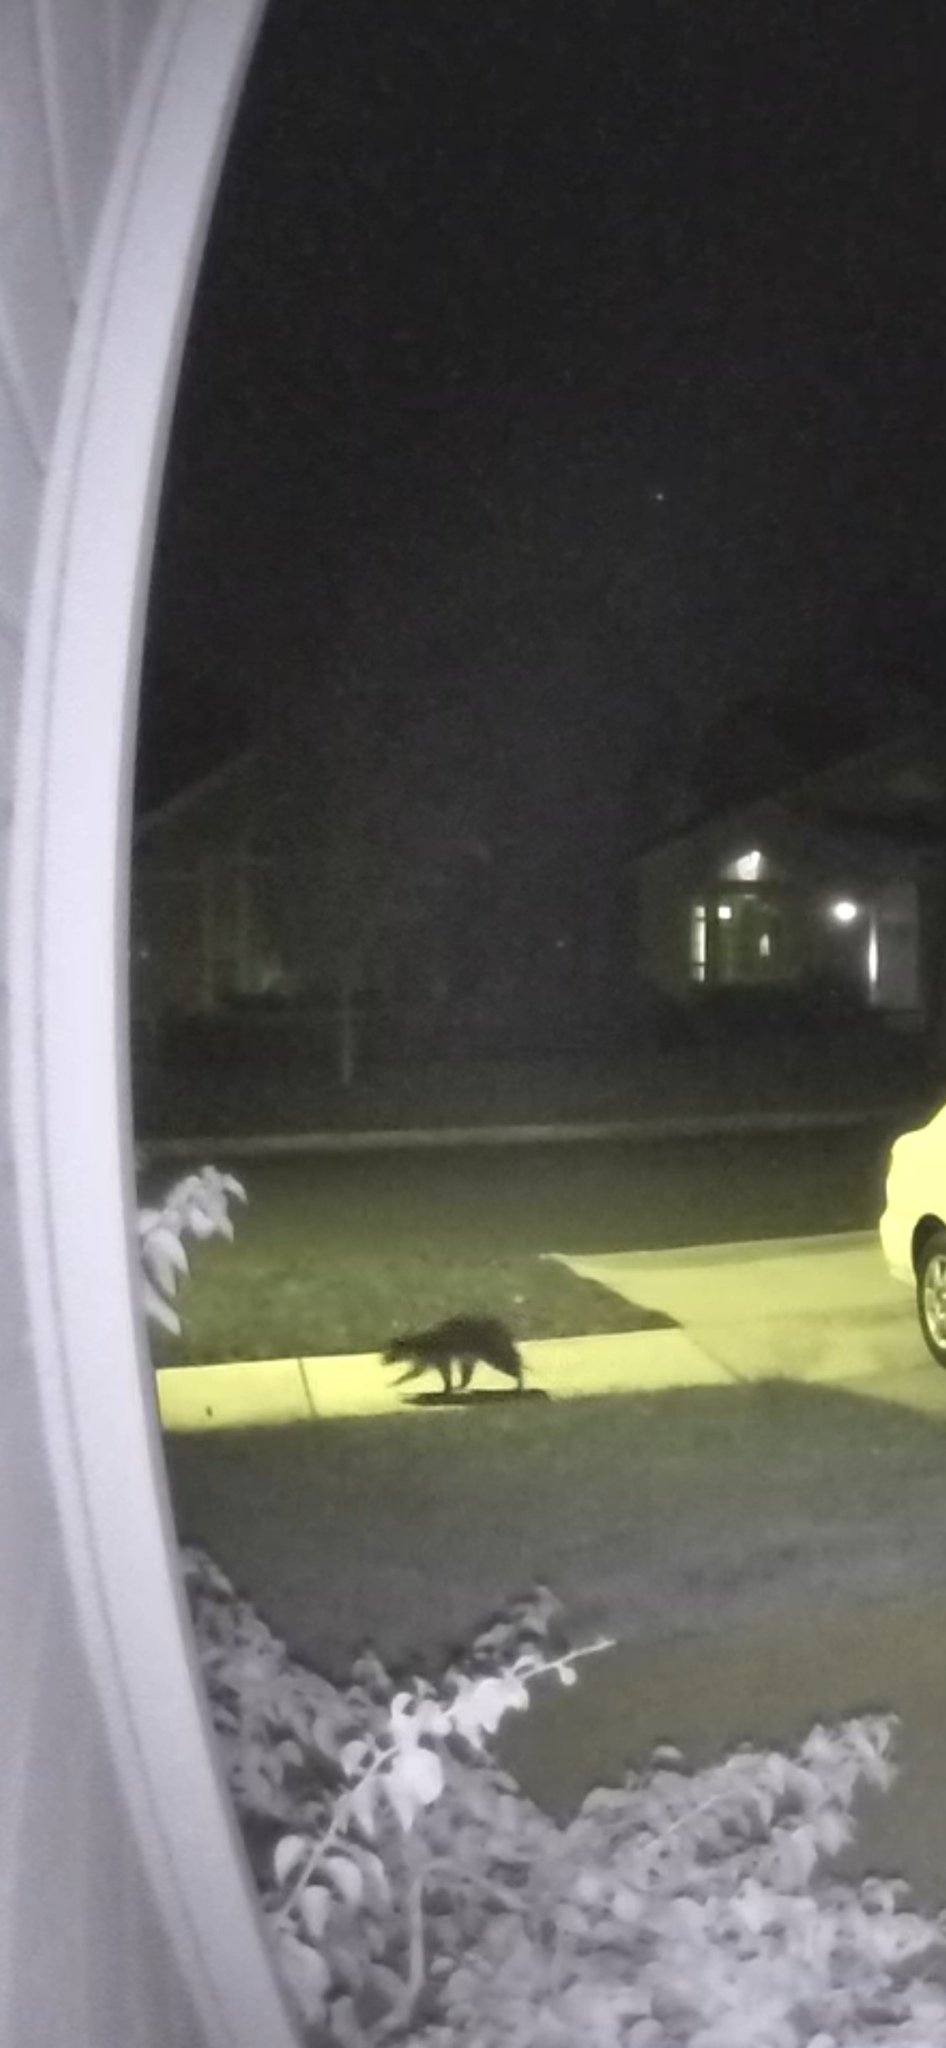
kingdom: Animalia
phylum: Chordata
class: Mammalia
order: Carnivora
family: Procyonidae
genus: Procyon
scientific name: Procyon lotor
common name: Raccoon
